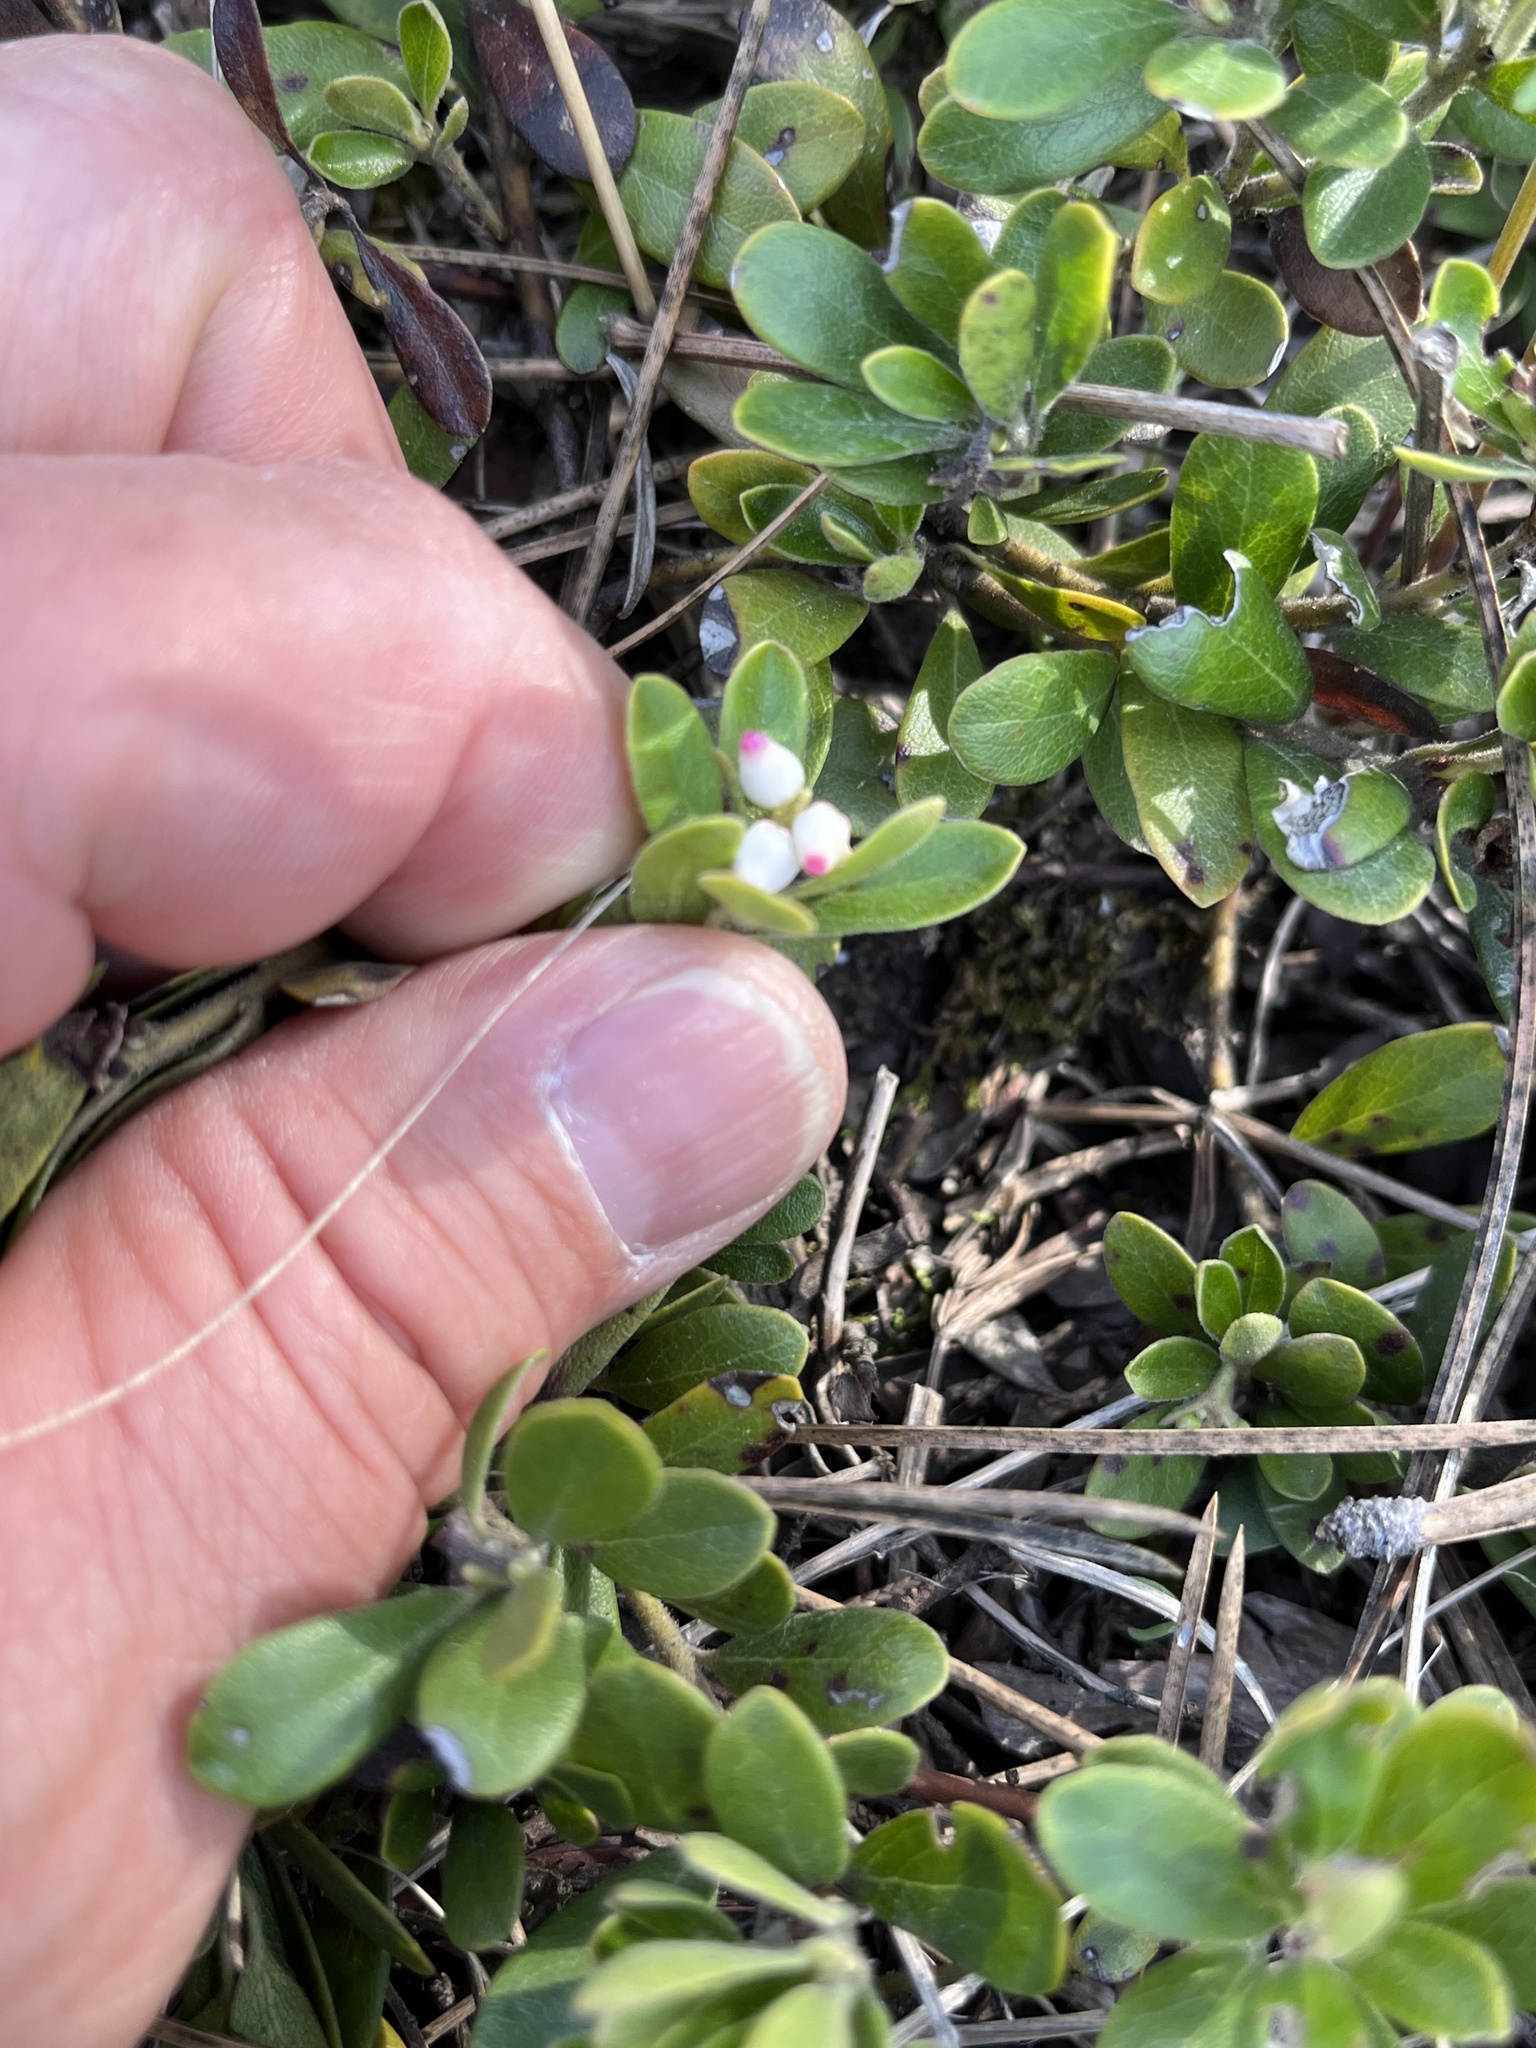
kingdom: Plantae
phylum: Tracheophyta
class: Magnoliopsida
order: Ericales
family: Ericaceae
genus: Arctostaphylos
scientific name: Arctostaphylos uva-ursi
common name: Bearberry
